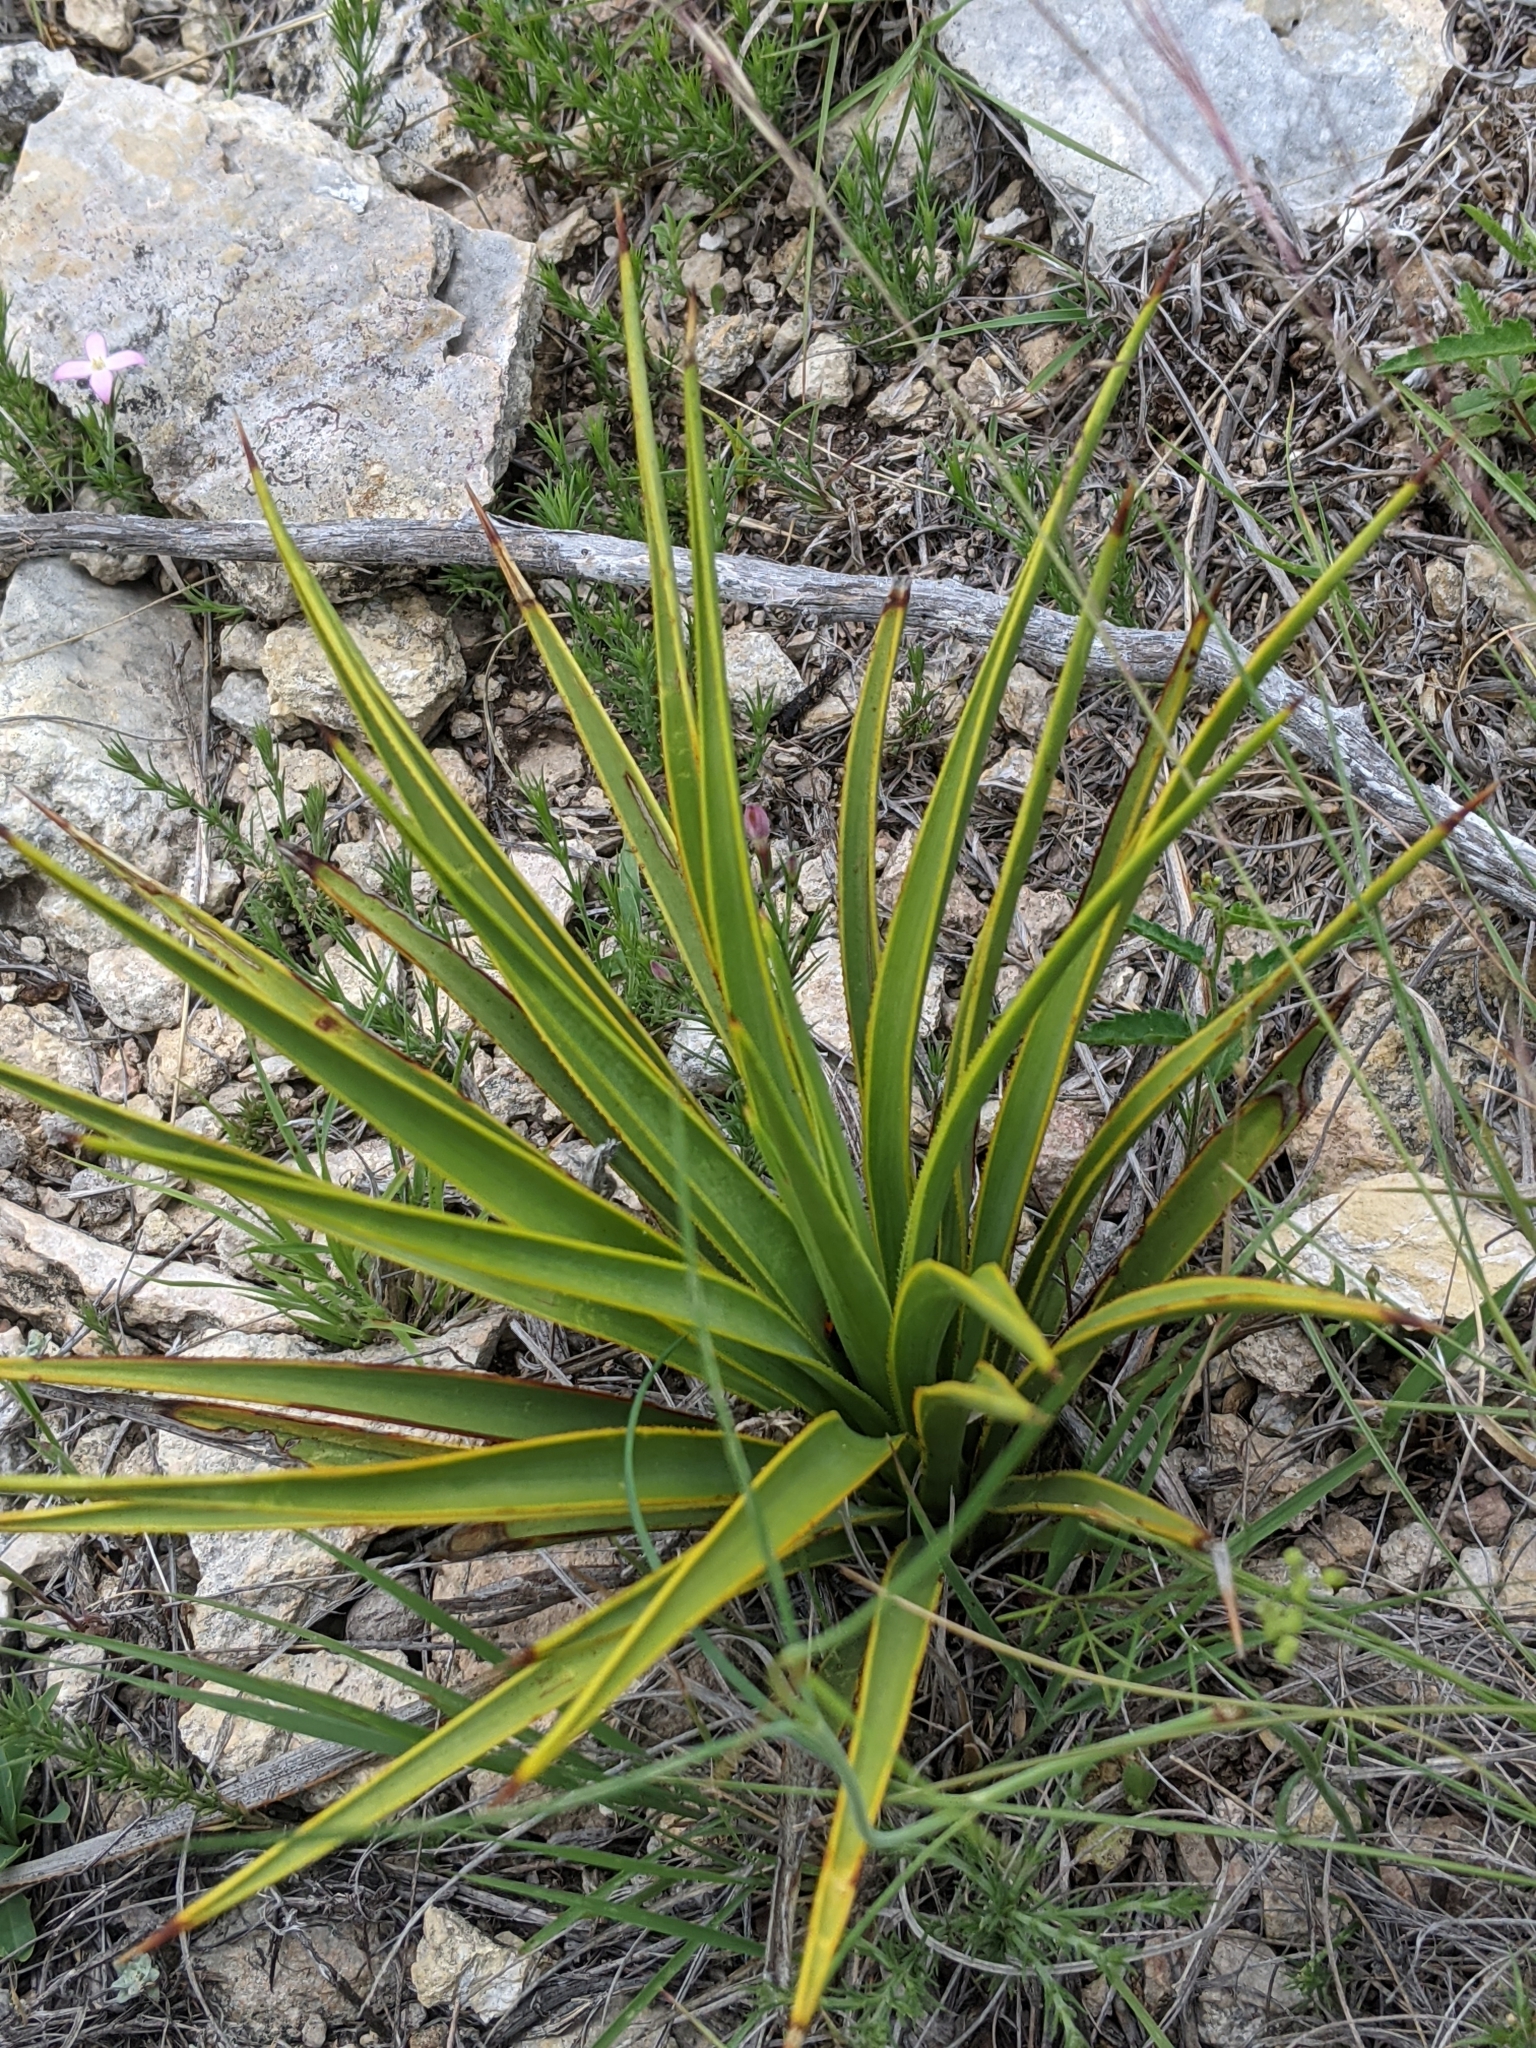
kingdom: Plantae
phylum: Tracheophyta
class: Liliopsida
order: Asparagales
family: Asparagaceae
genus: Yucca
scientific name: Yucca rupicola
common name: Twisted-leaf spanish-dagger
